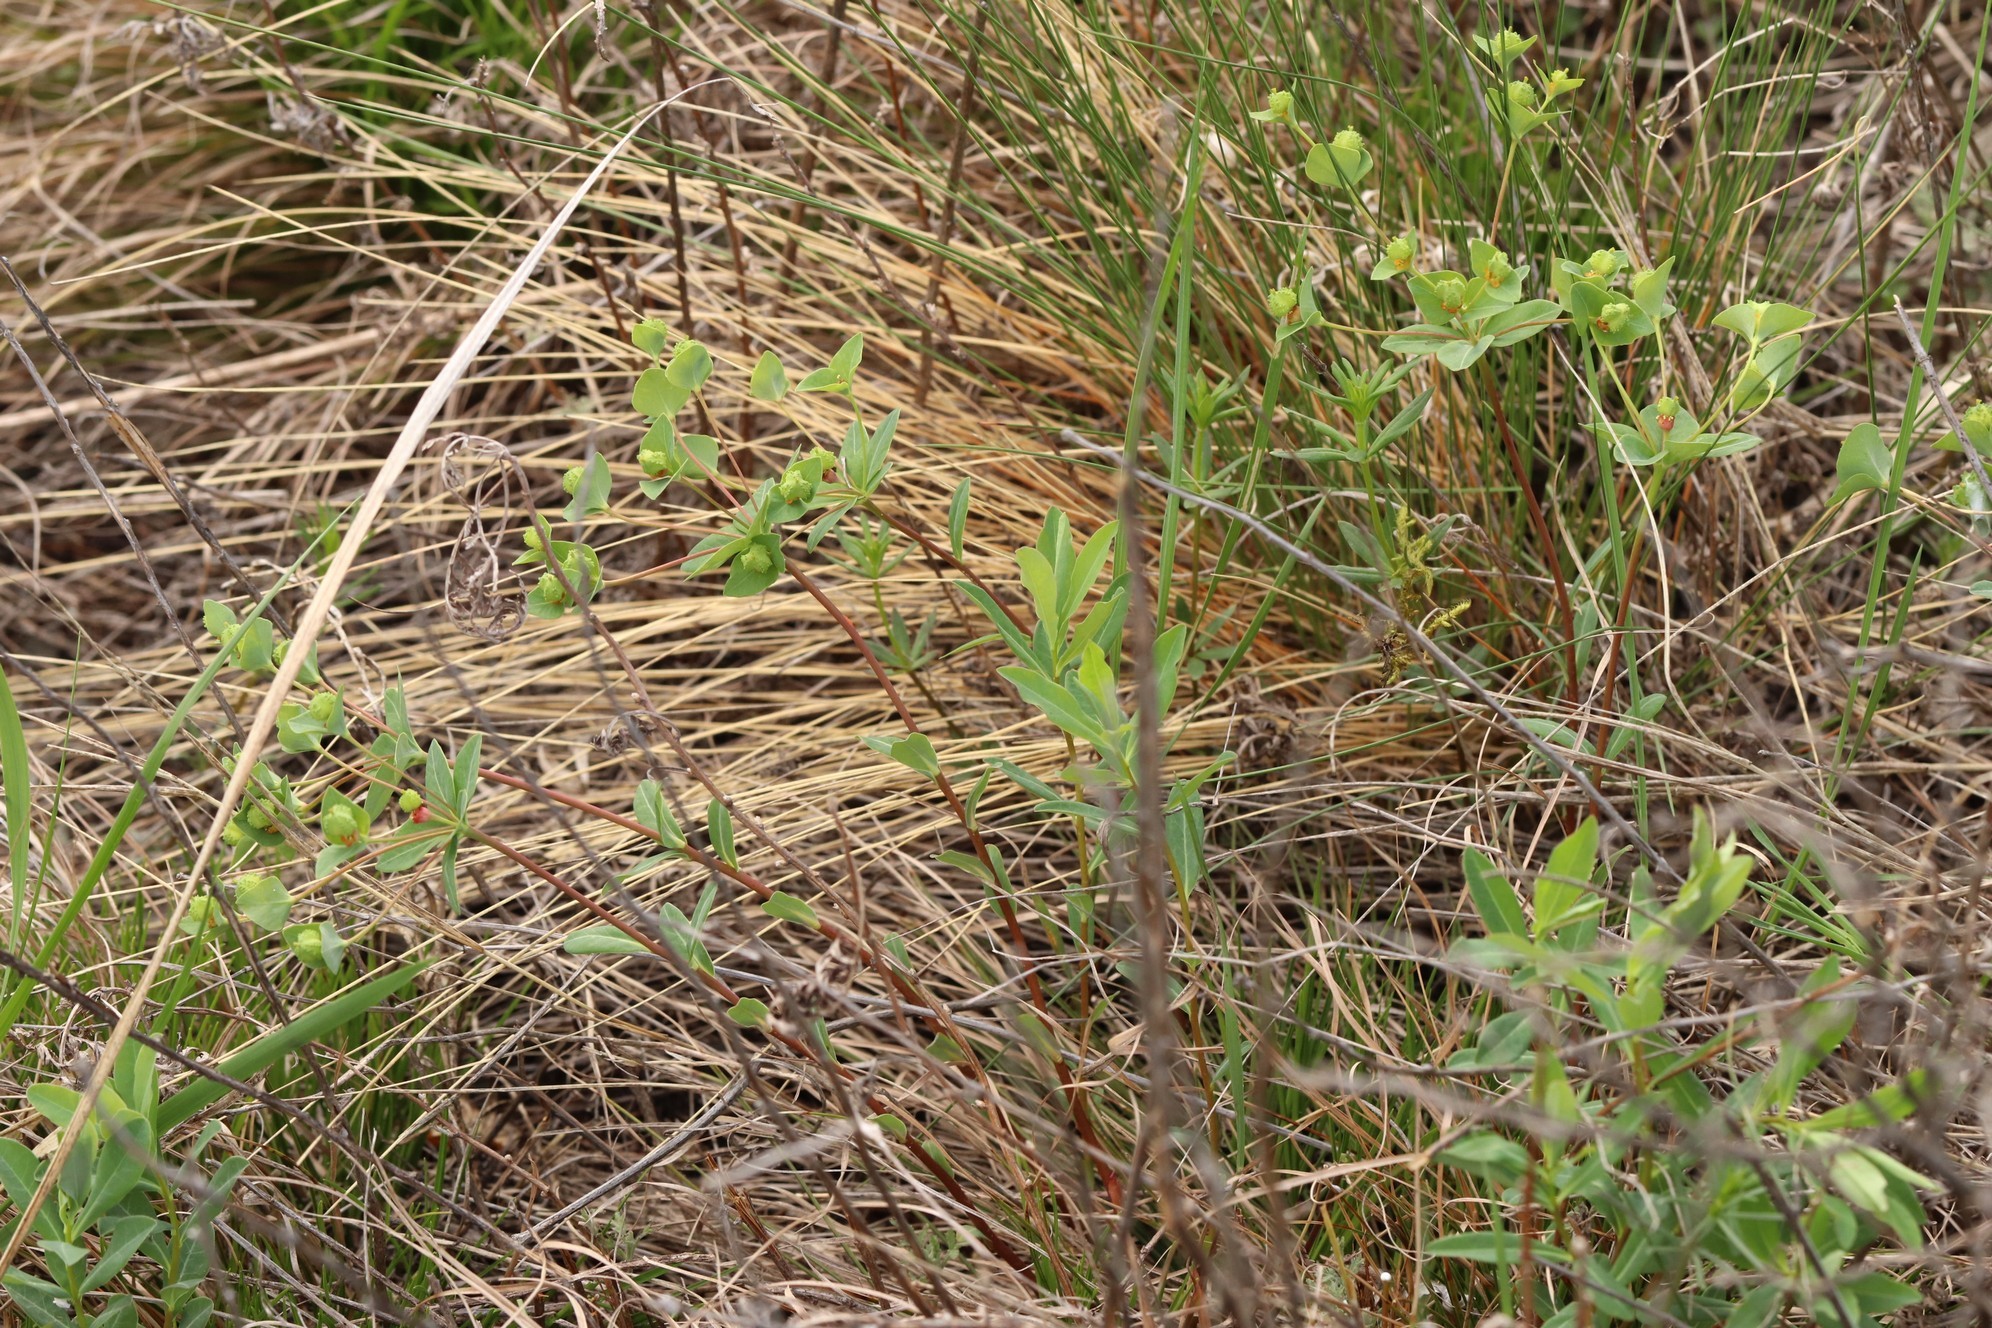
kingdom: Plantae
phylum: Tracheophyta
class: Magnoliopsida
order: Malpighiales
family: Euphorbiaceae
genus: Euphorbia
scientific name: Euphorbia altaica
